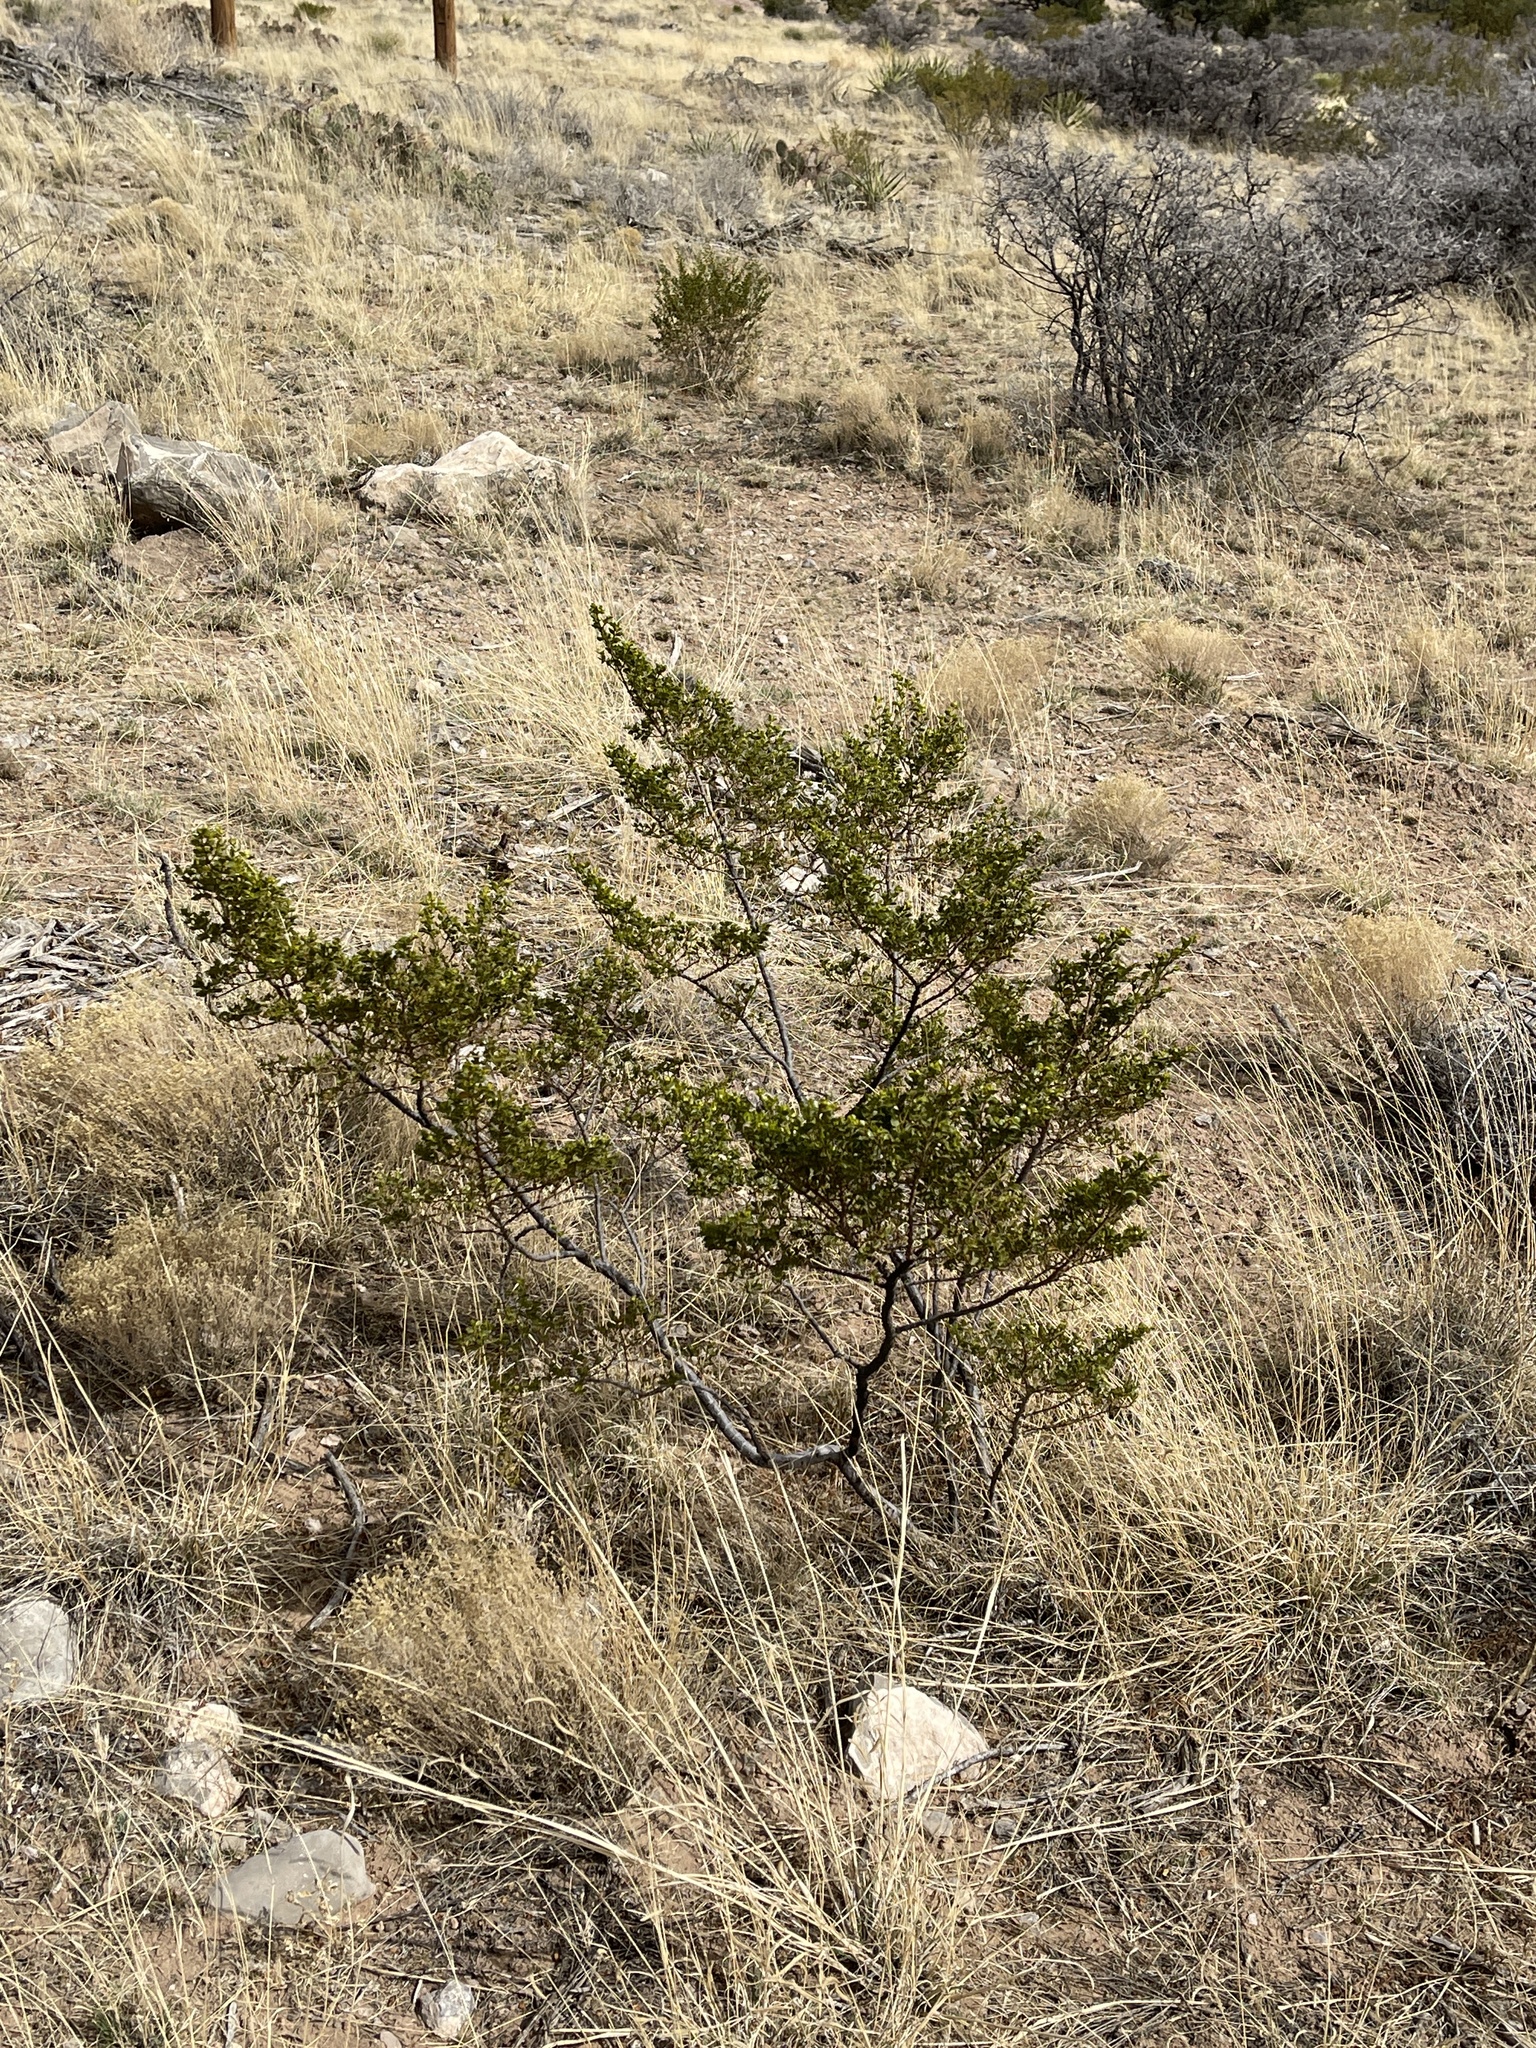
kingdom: Plantae
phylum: Tracheophyta
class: Magnoliopsida
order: Zygophyllales
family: Zygophyllaceae
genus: Larrea
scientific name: Larrea tridentata
